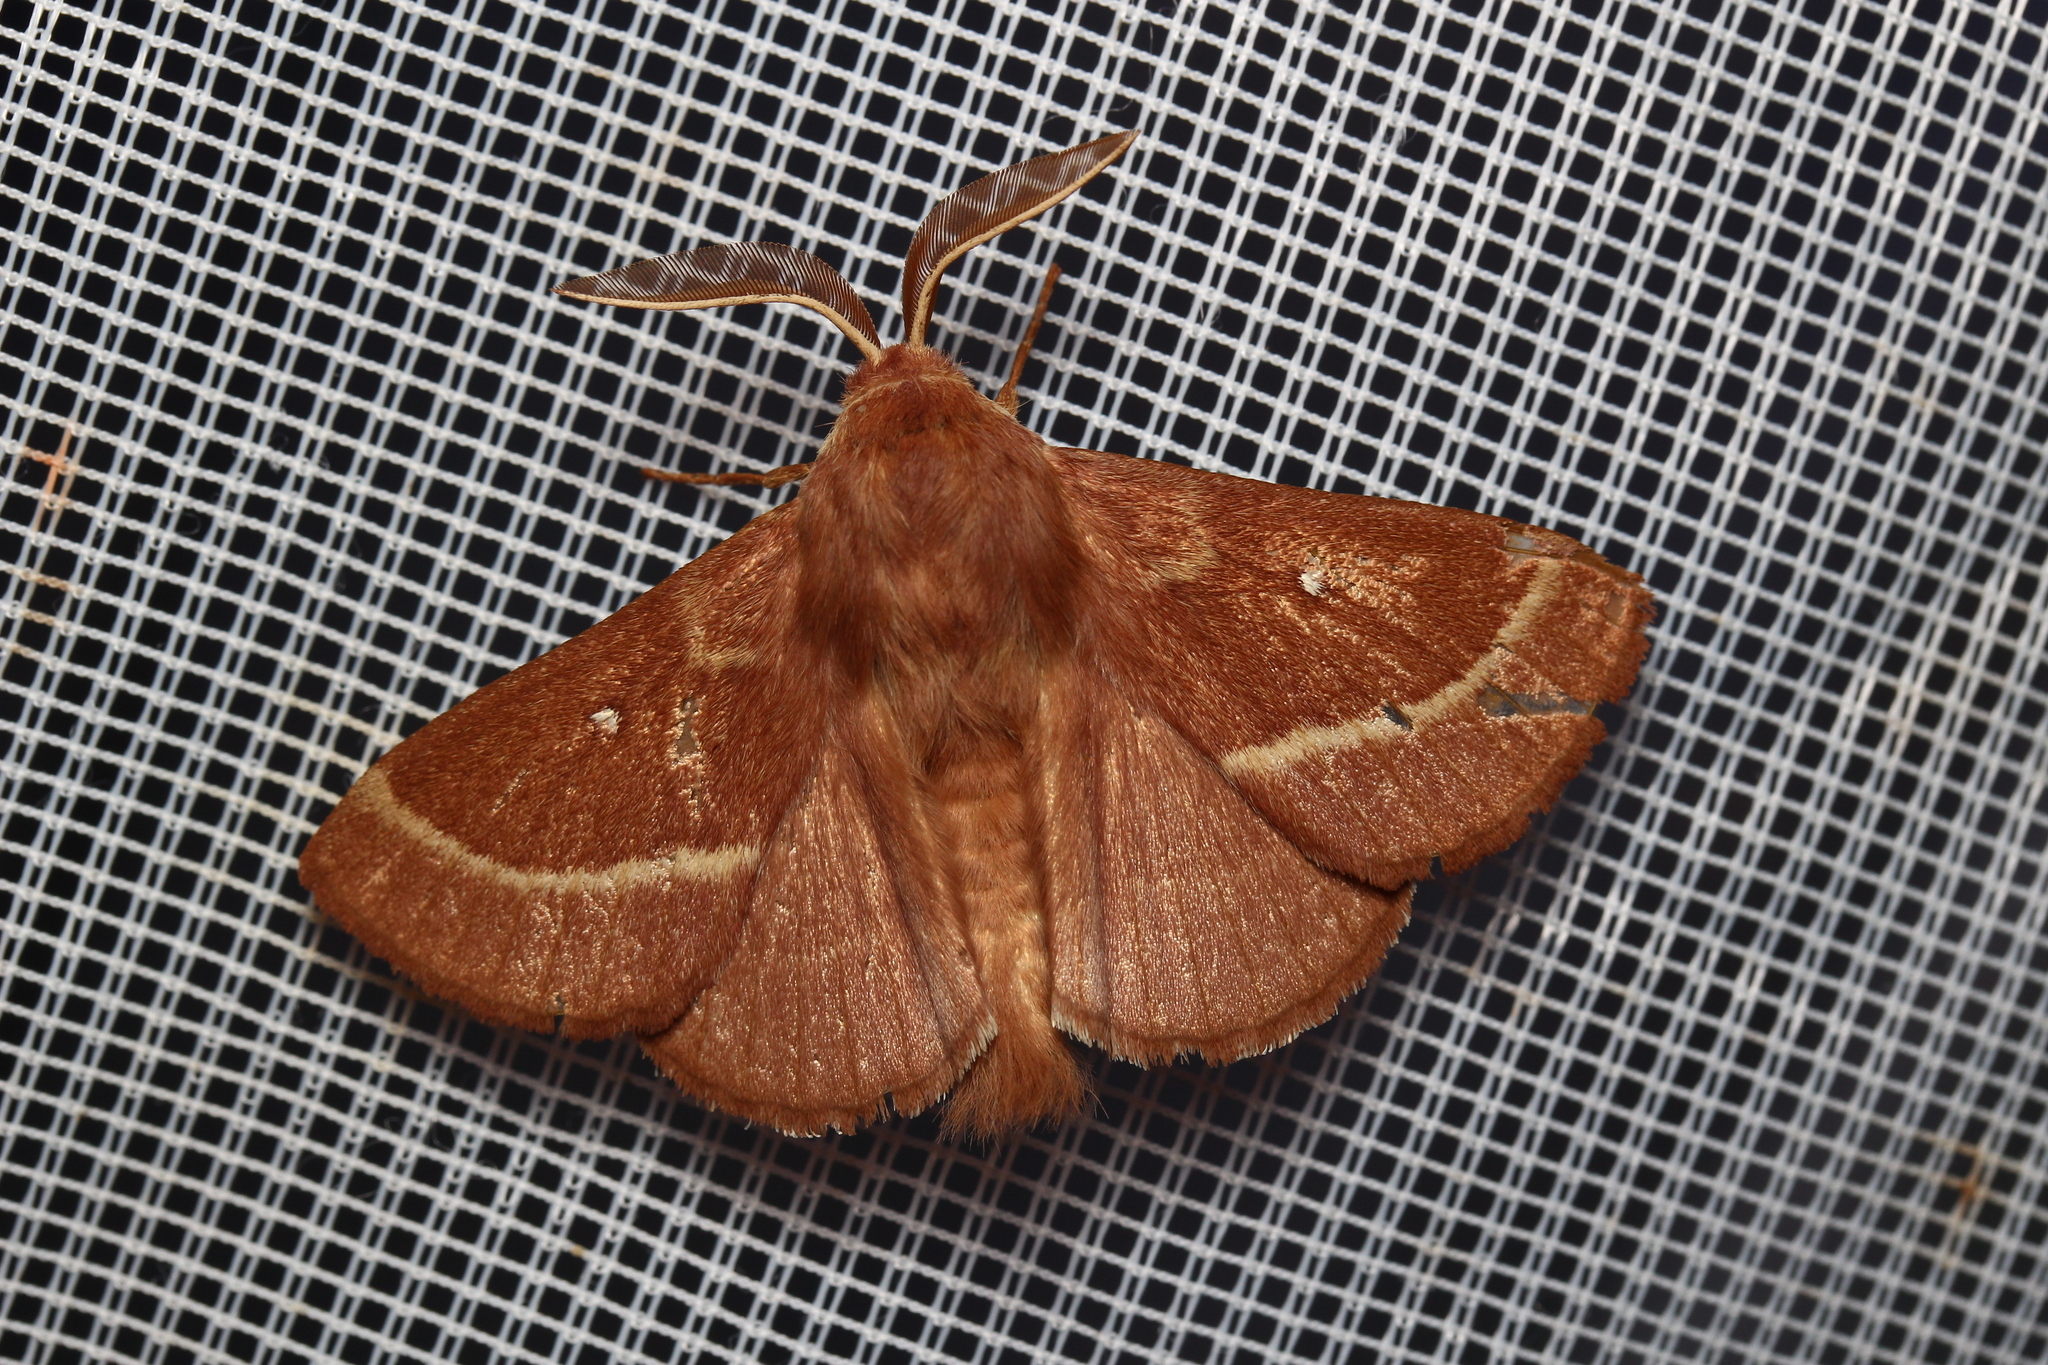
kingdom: Animalia
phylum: Arthropoda
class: Insecta
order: Lepidoptera
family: Lasiocampidae
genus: Lasiocampa
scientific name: Lasiocampa trifolii
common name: Grass eggar
